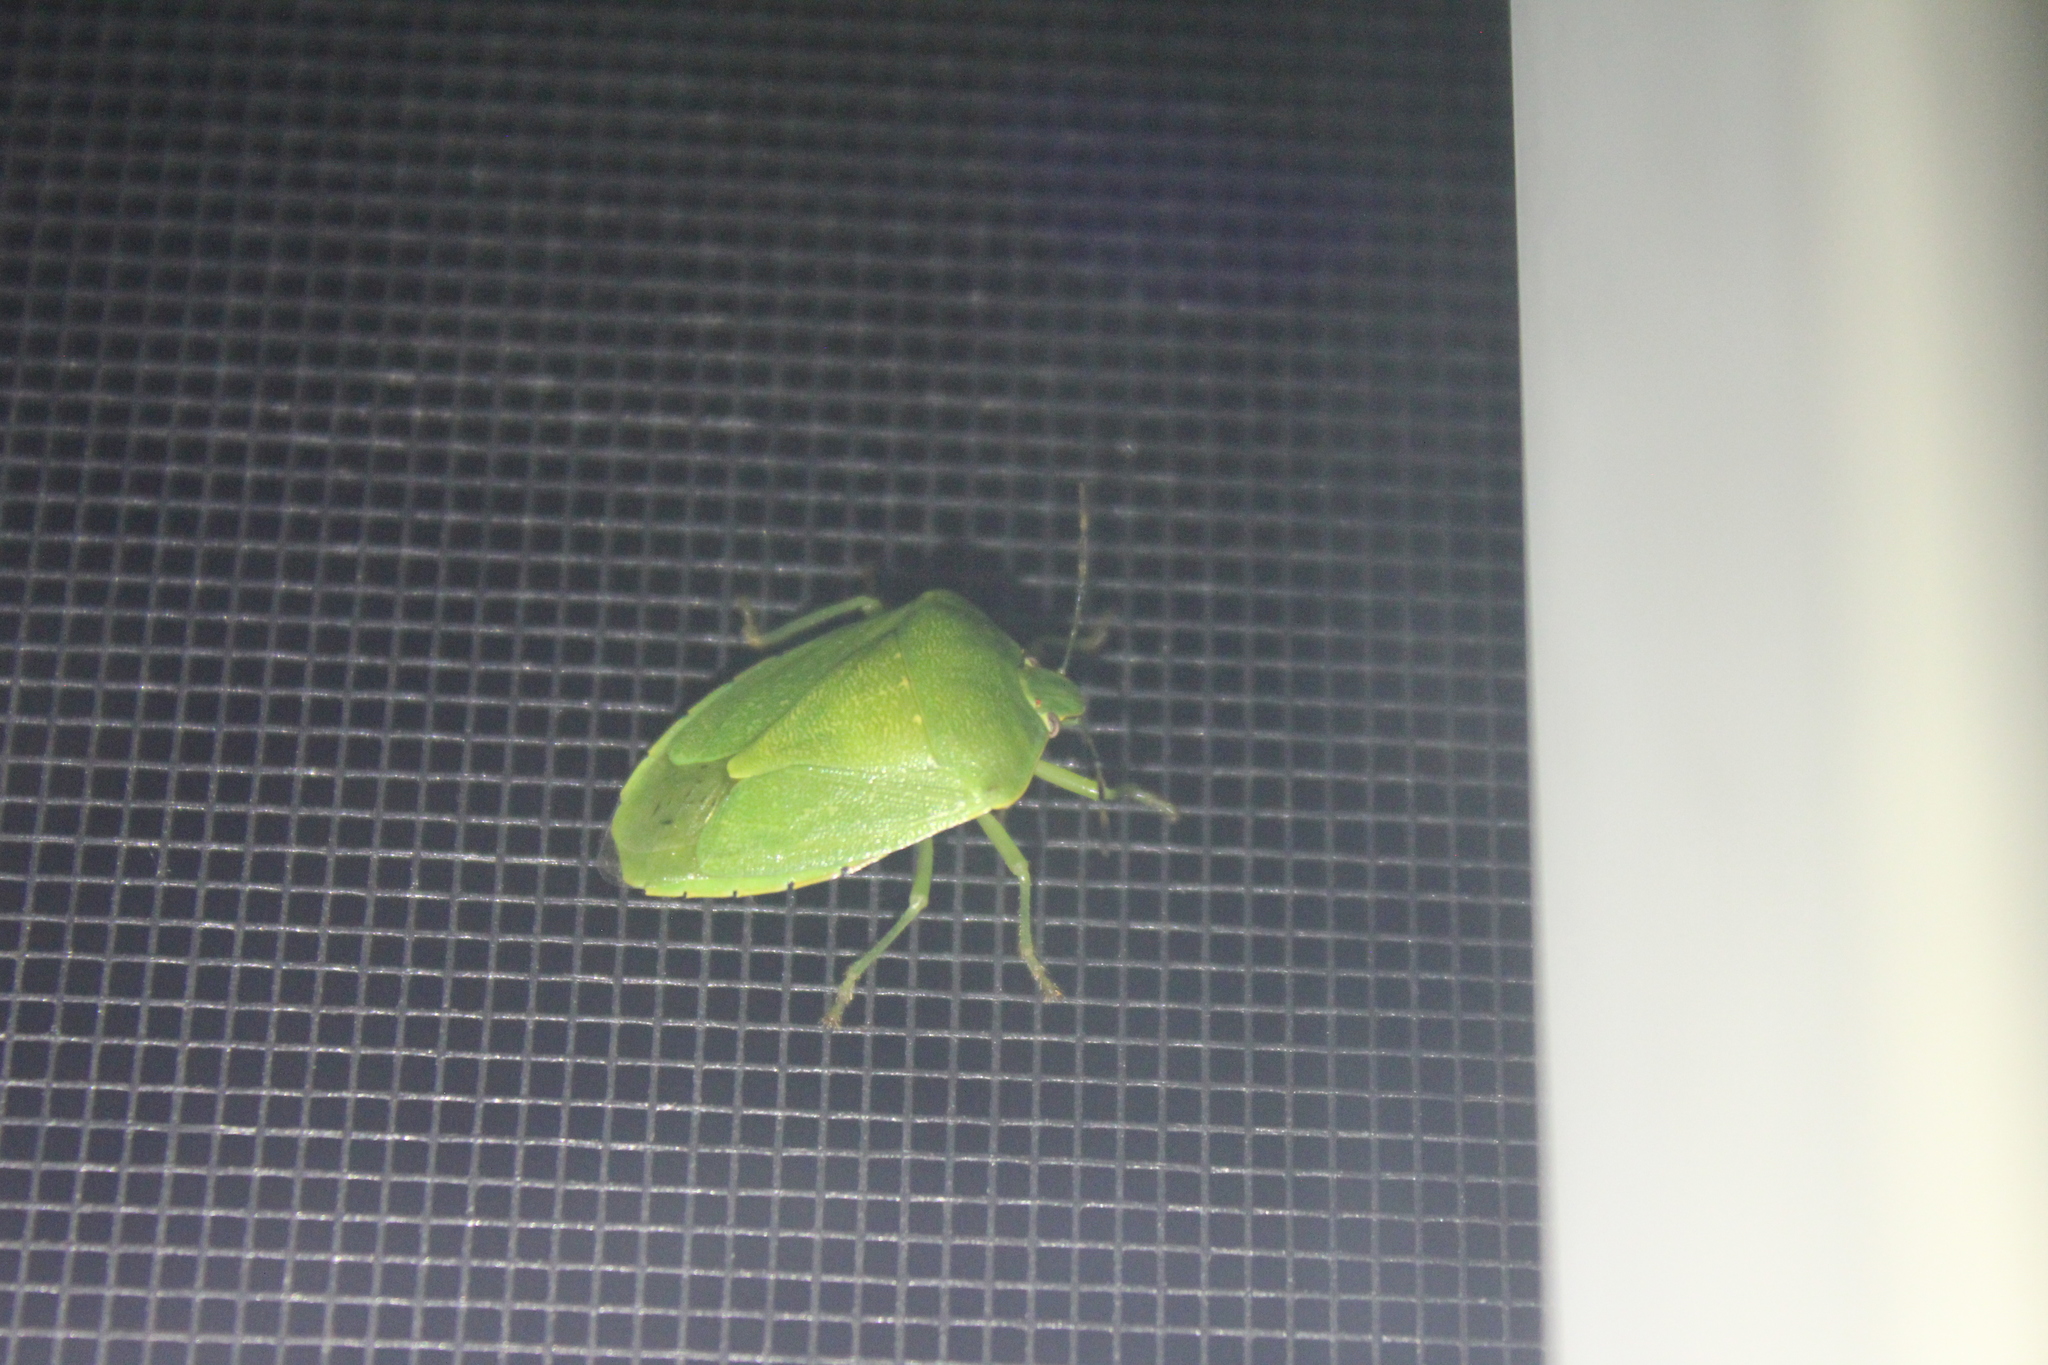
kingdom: Animalia
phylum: Arthropoda
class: Insecta
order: Hemiptera
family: Pentatomidae
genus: Chinavia
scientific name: Chinavia hilaris
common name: Green stink bug
